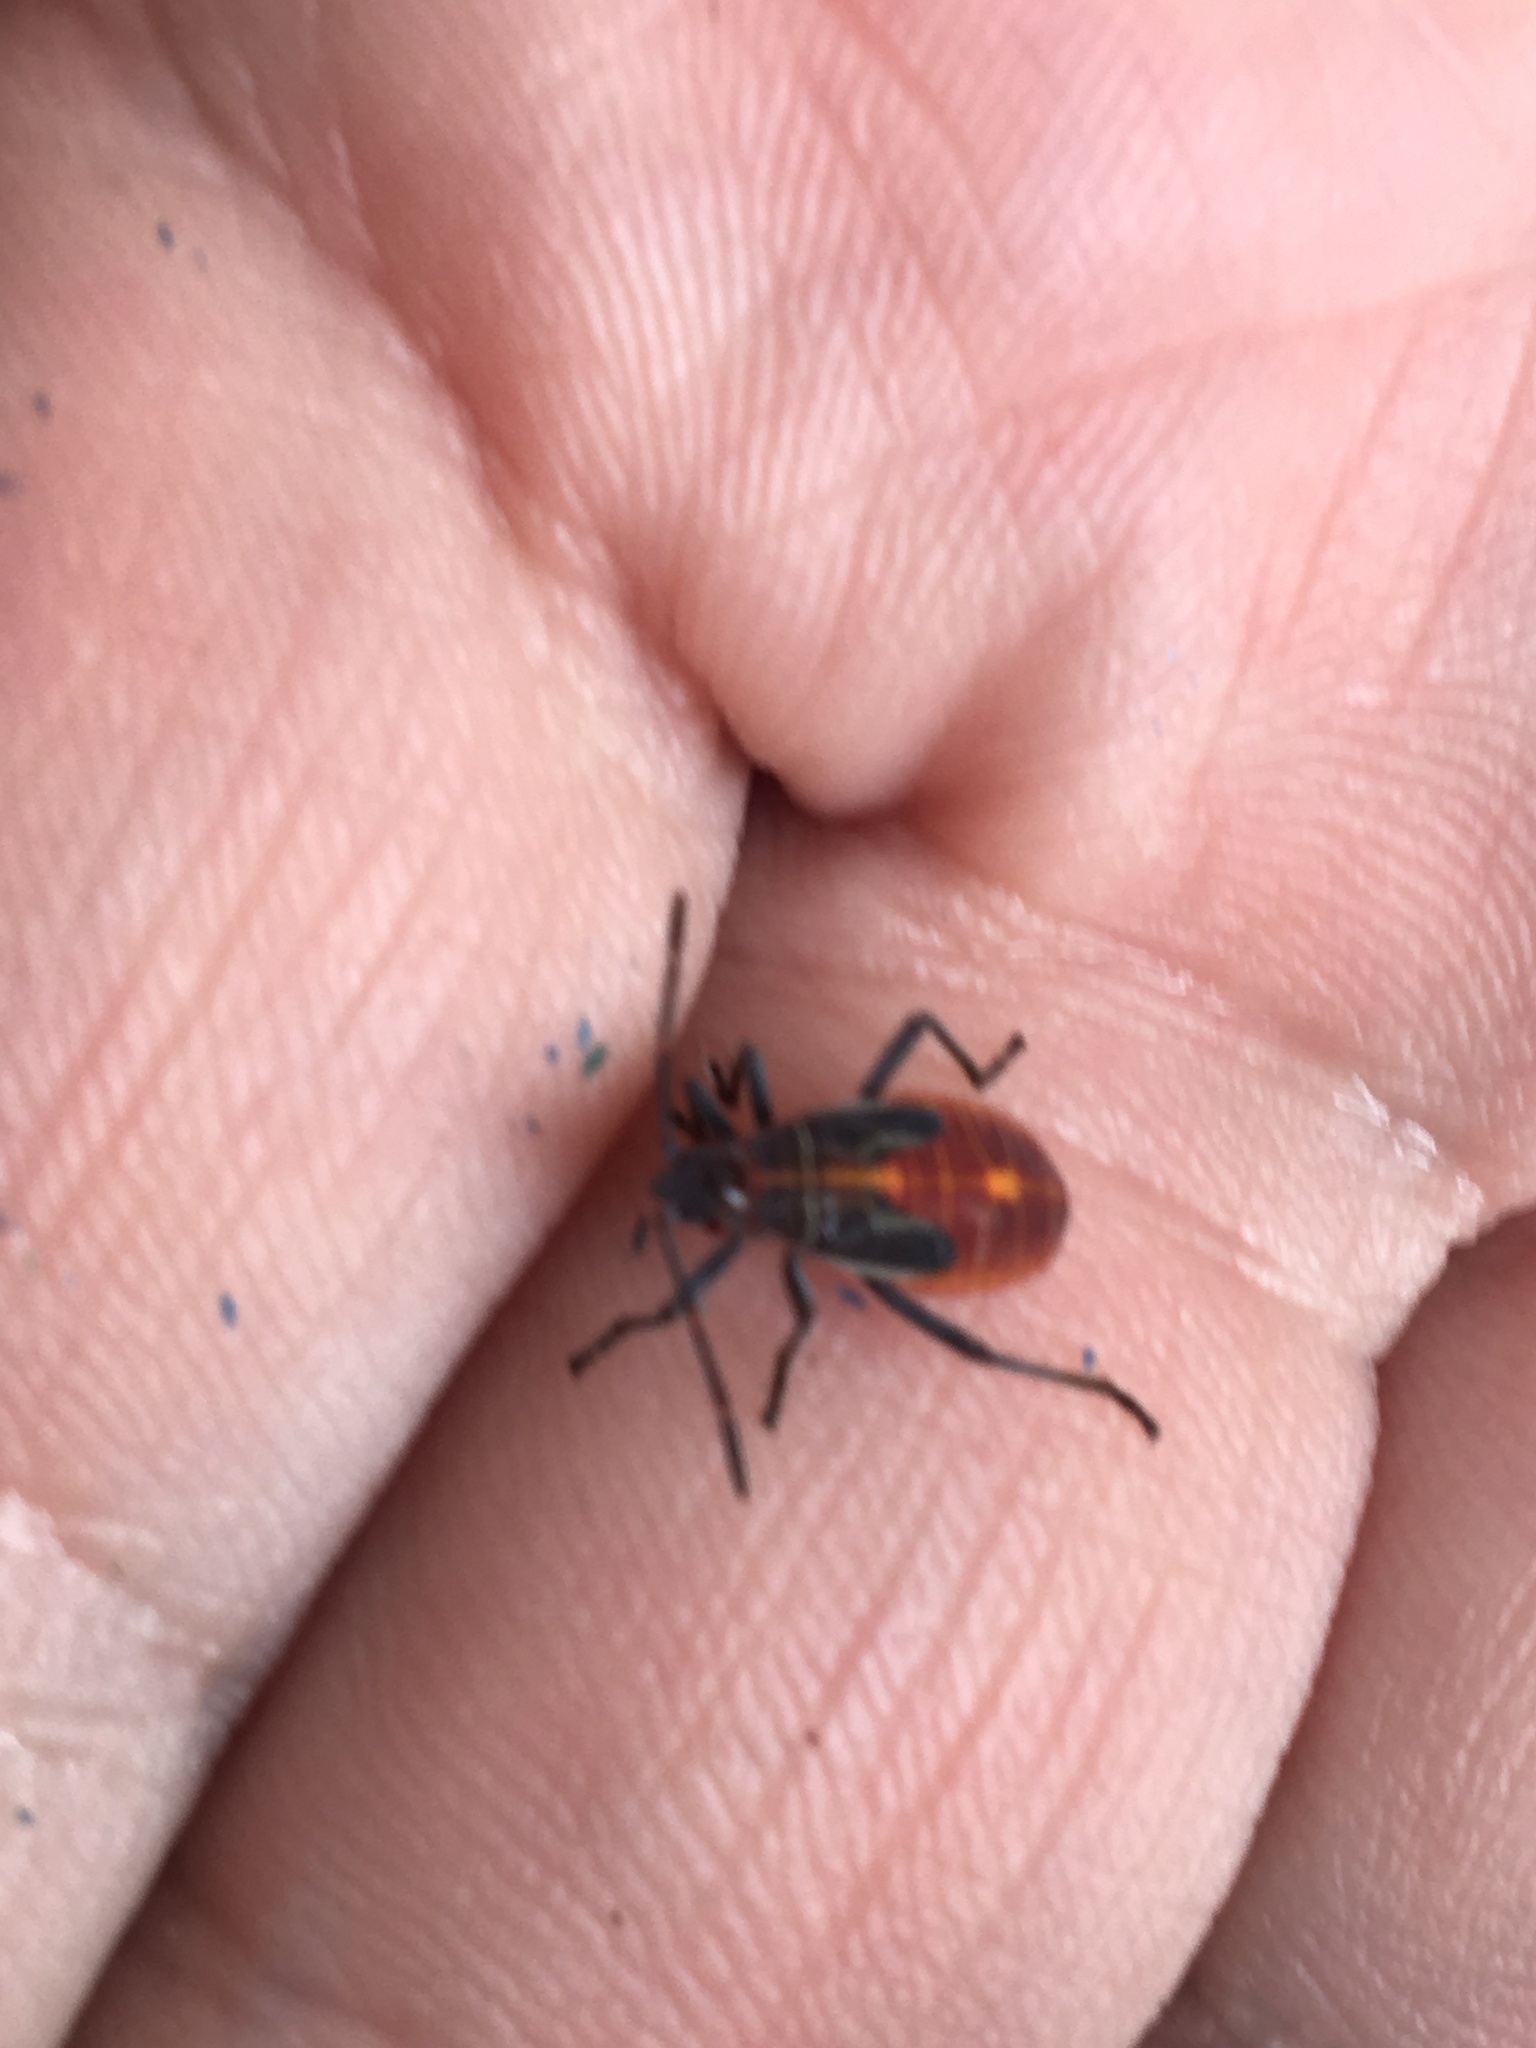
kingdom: Animalia
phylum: Arthropoda
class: Insecta
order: Hemiptera
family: Rhopalidae
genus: Boisea
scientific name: Boisea rubrolineata
